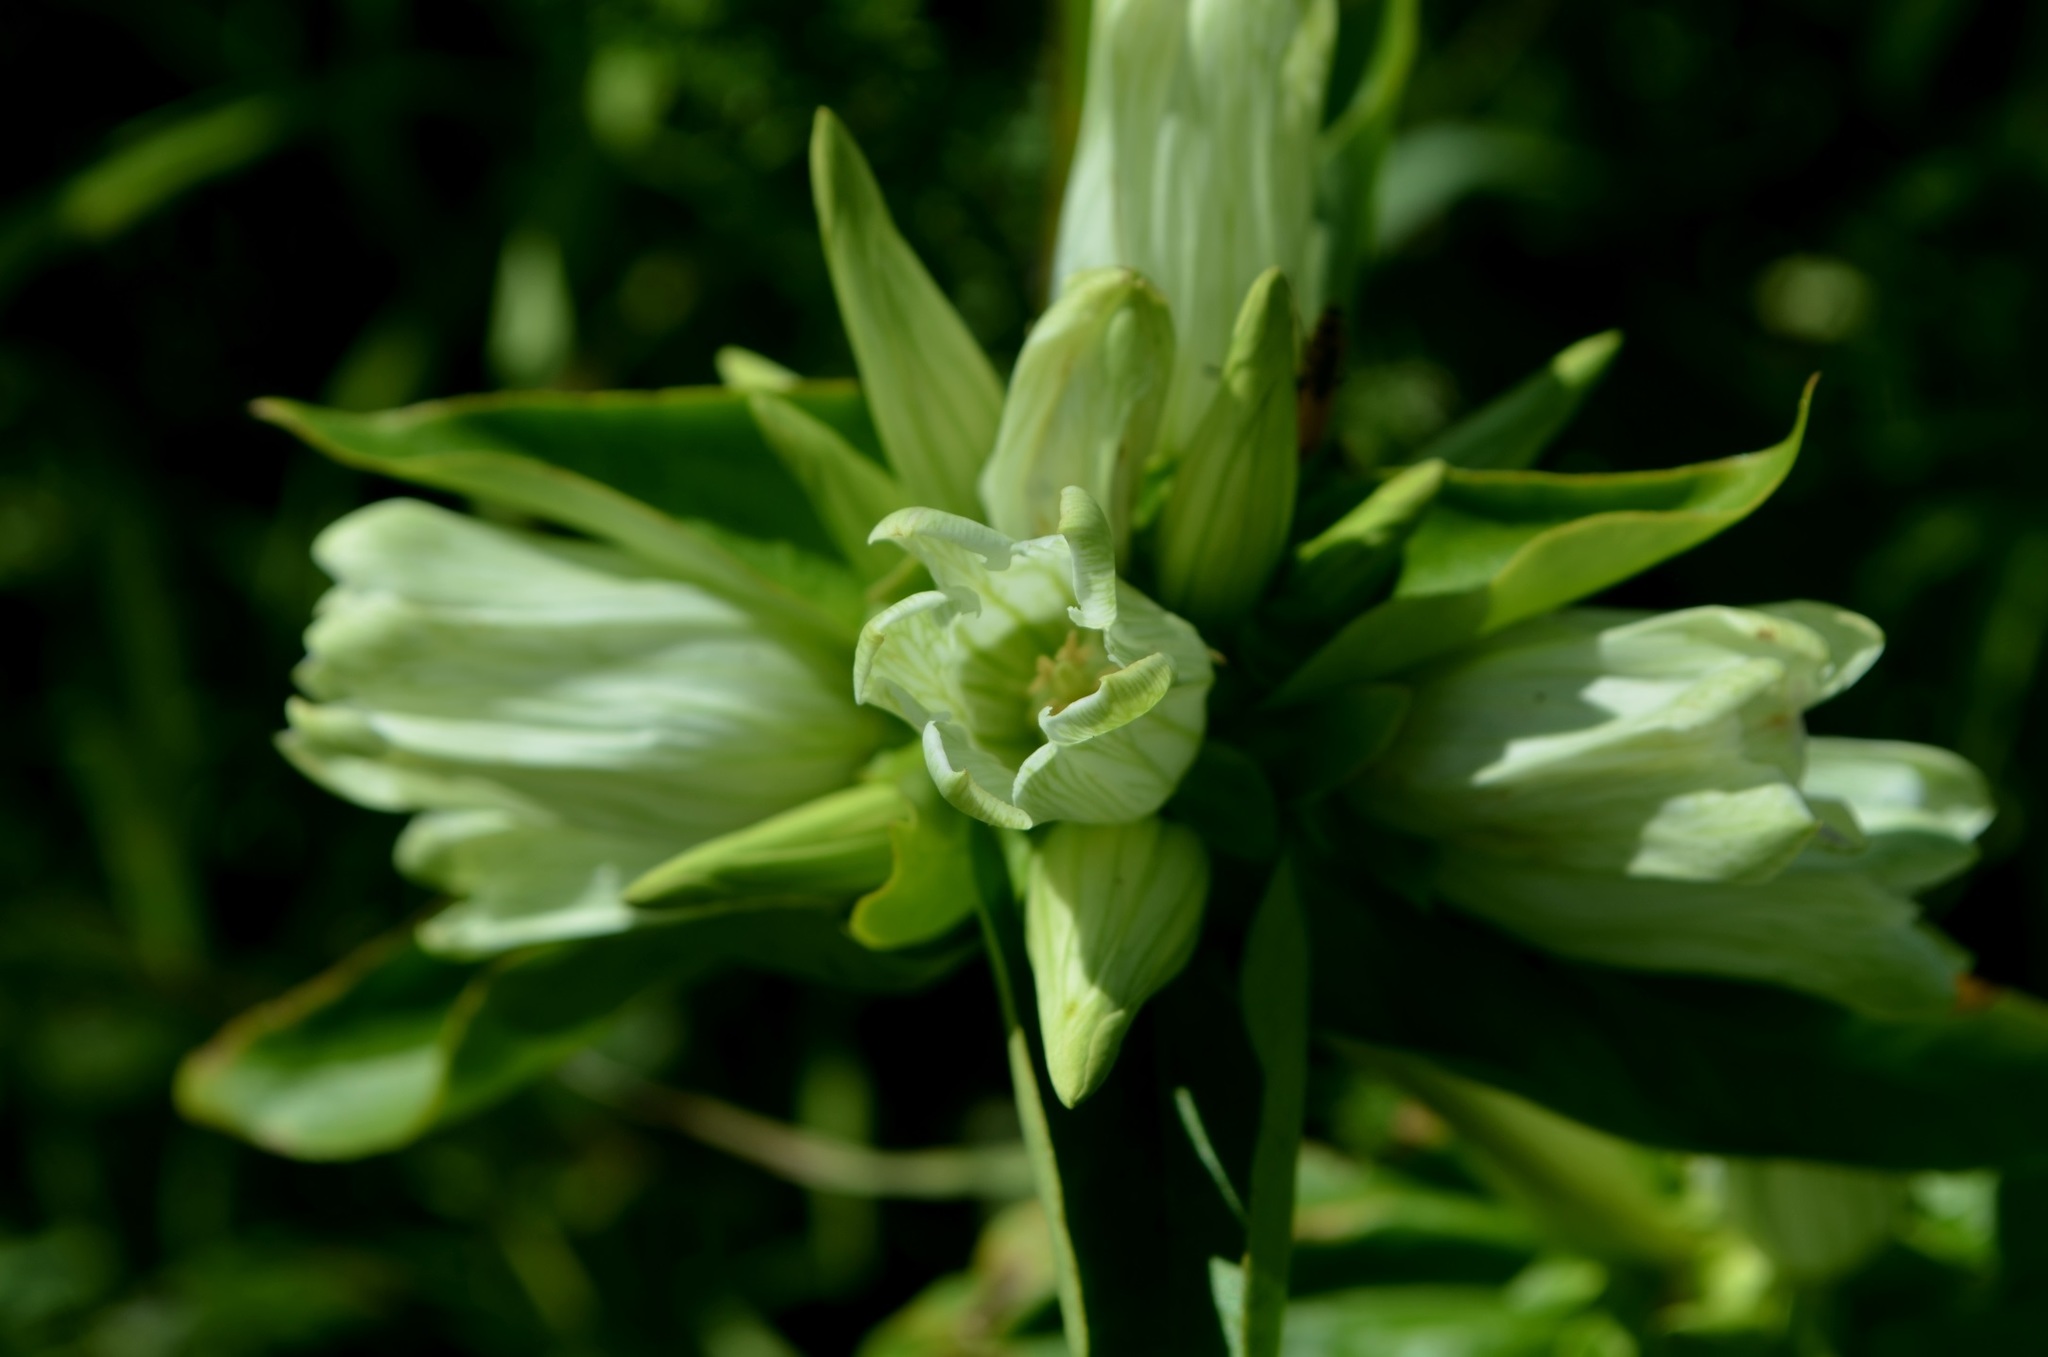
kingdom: Plantae
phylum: Tracheophyta
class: Magnoliopsida
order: Gentianales
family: Gentianaceae
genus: Gentiana
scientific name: Gentiana alba
